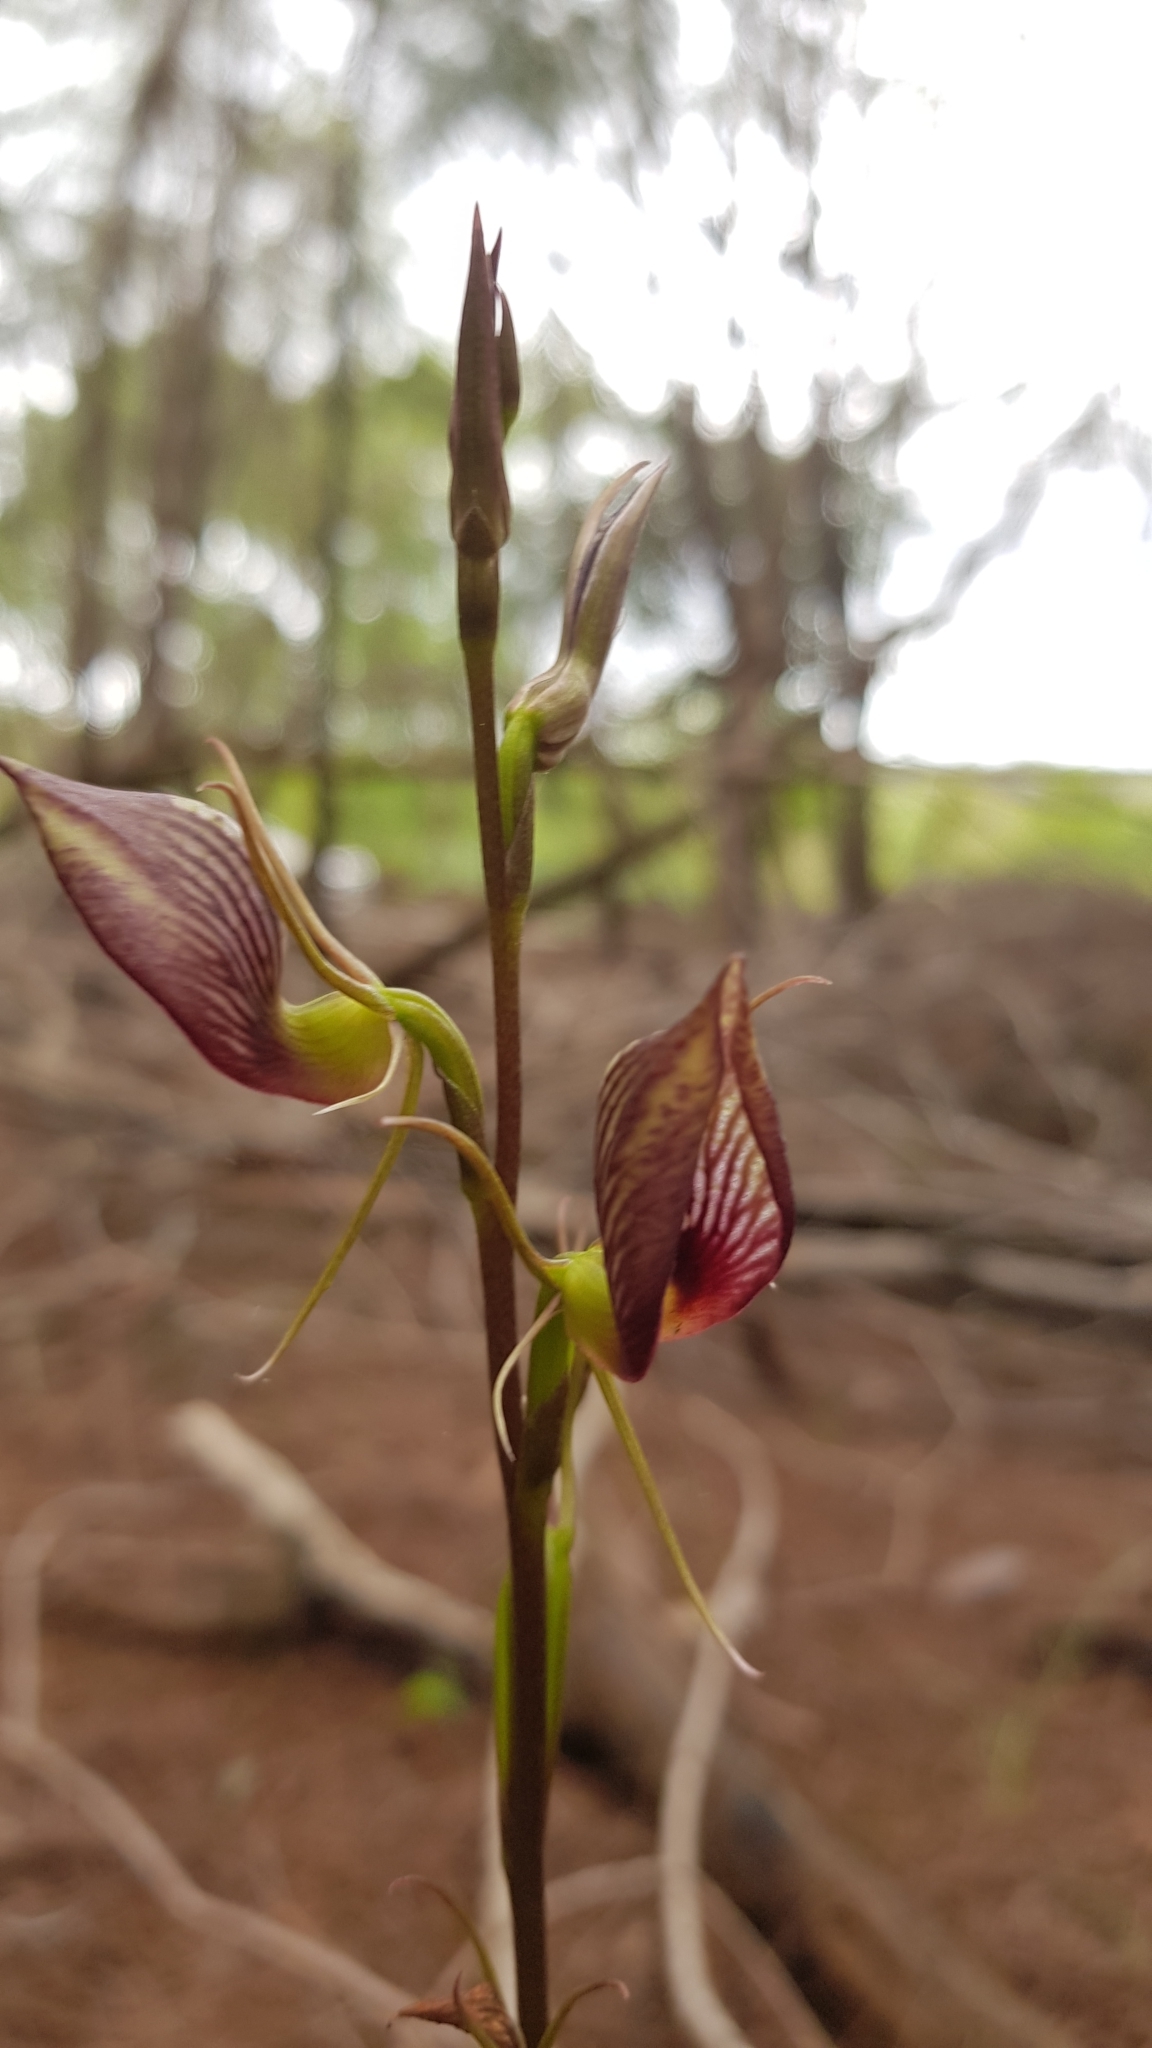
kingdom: Plantae
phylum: Tracheophyta
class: Liliopsida
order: Asparagales
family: Orchidaceae
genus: Cryptostylis
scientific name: Cryptostylis erecta
